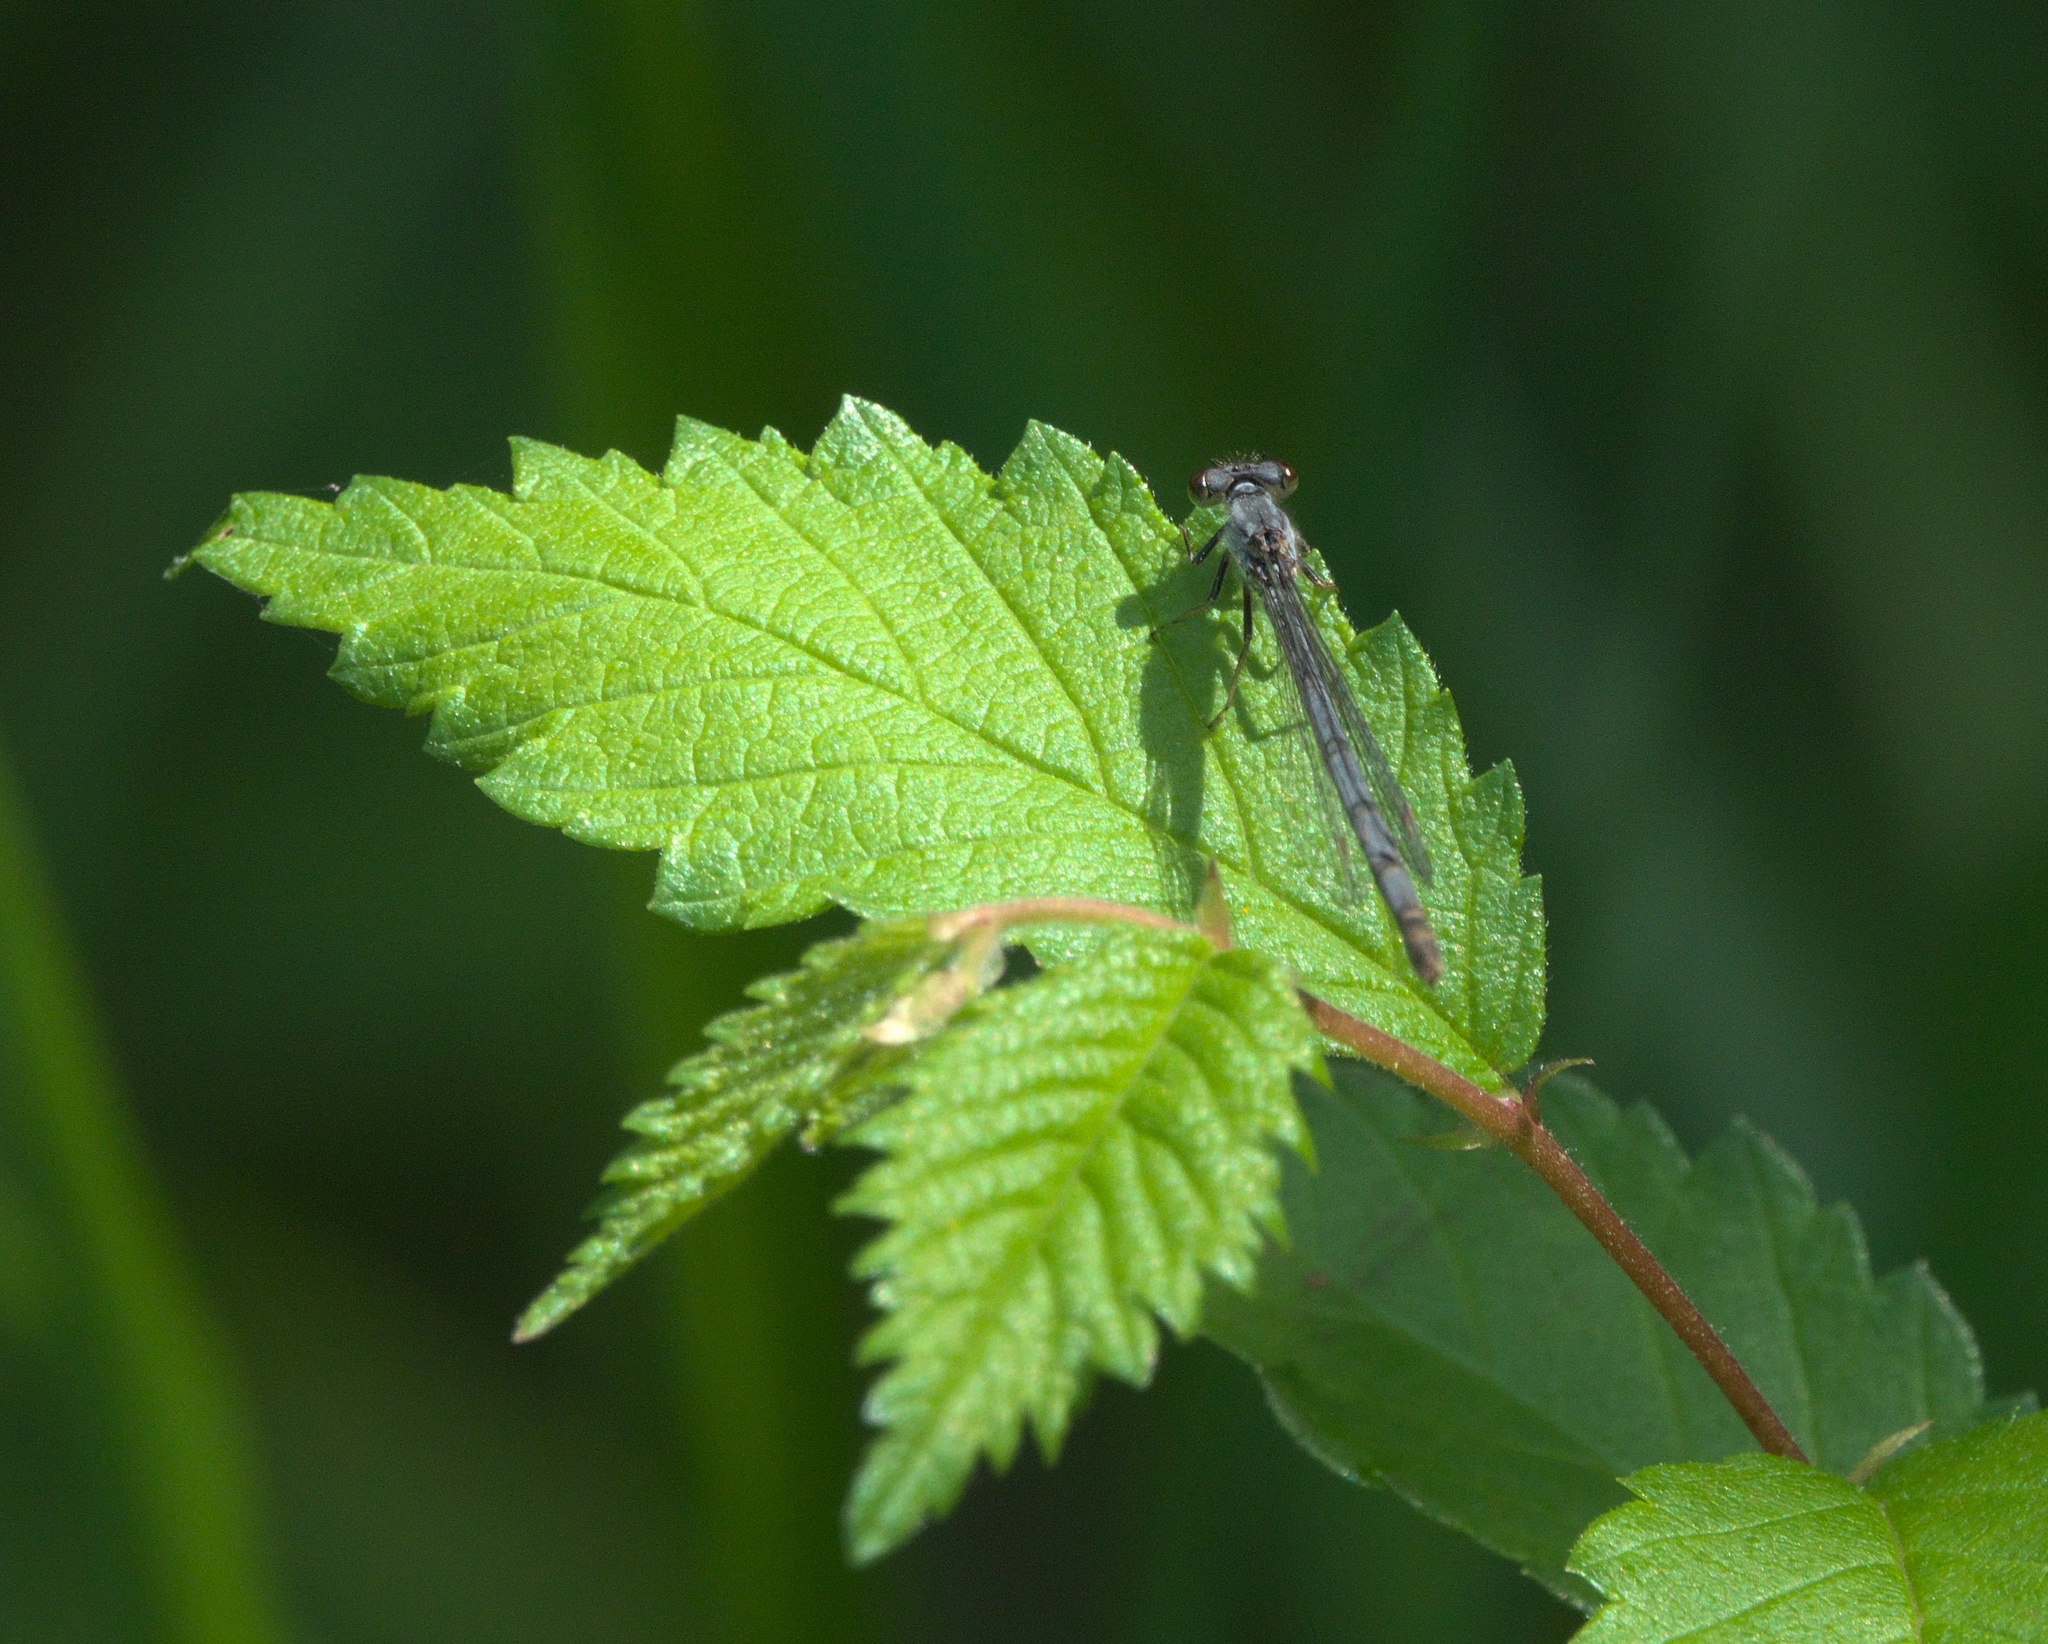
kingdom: Animalia
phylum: Arthropoda
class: Insecta
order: Odonata
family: Coenagrionidae
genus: Ischnura
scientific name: Ischnura posita
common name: Fragile forktail
